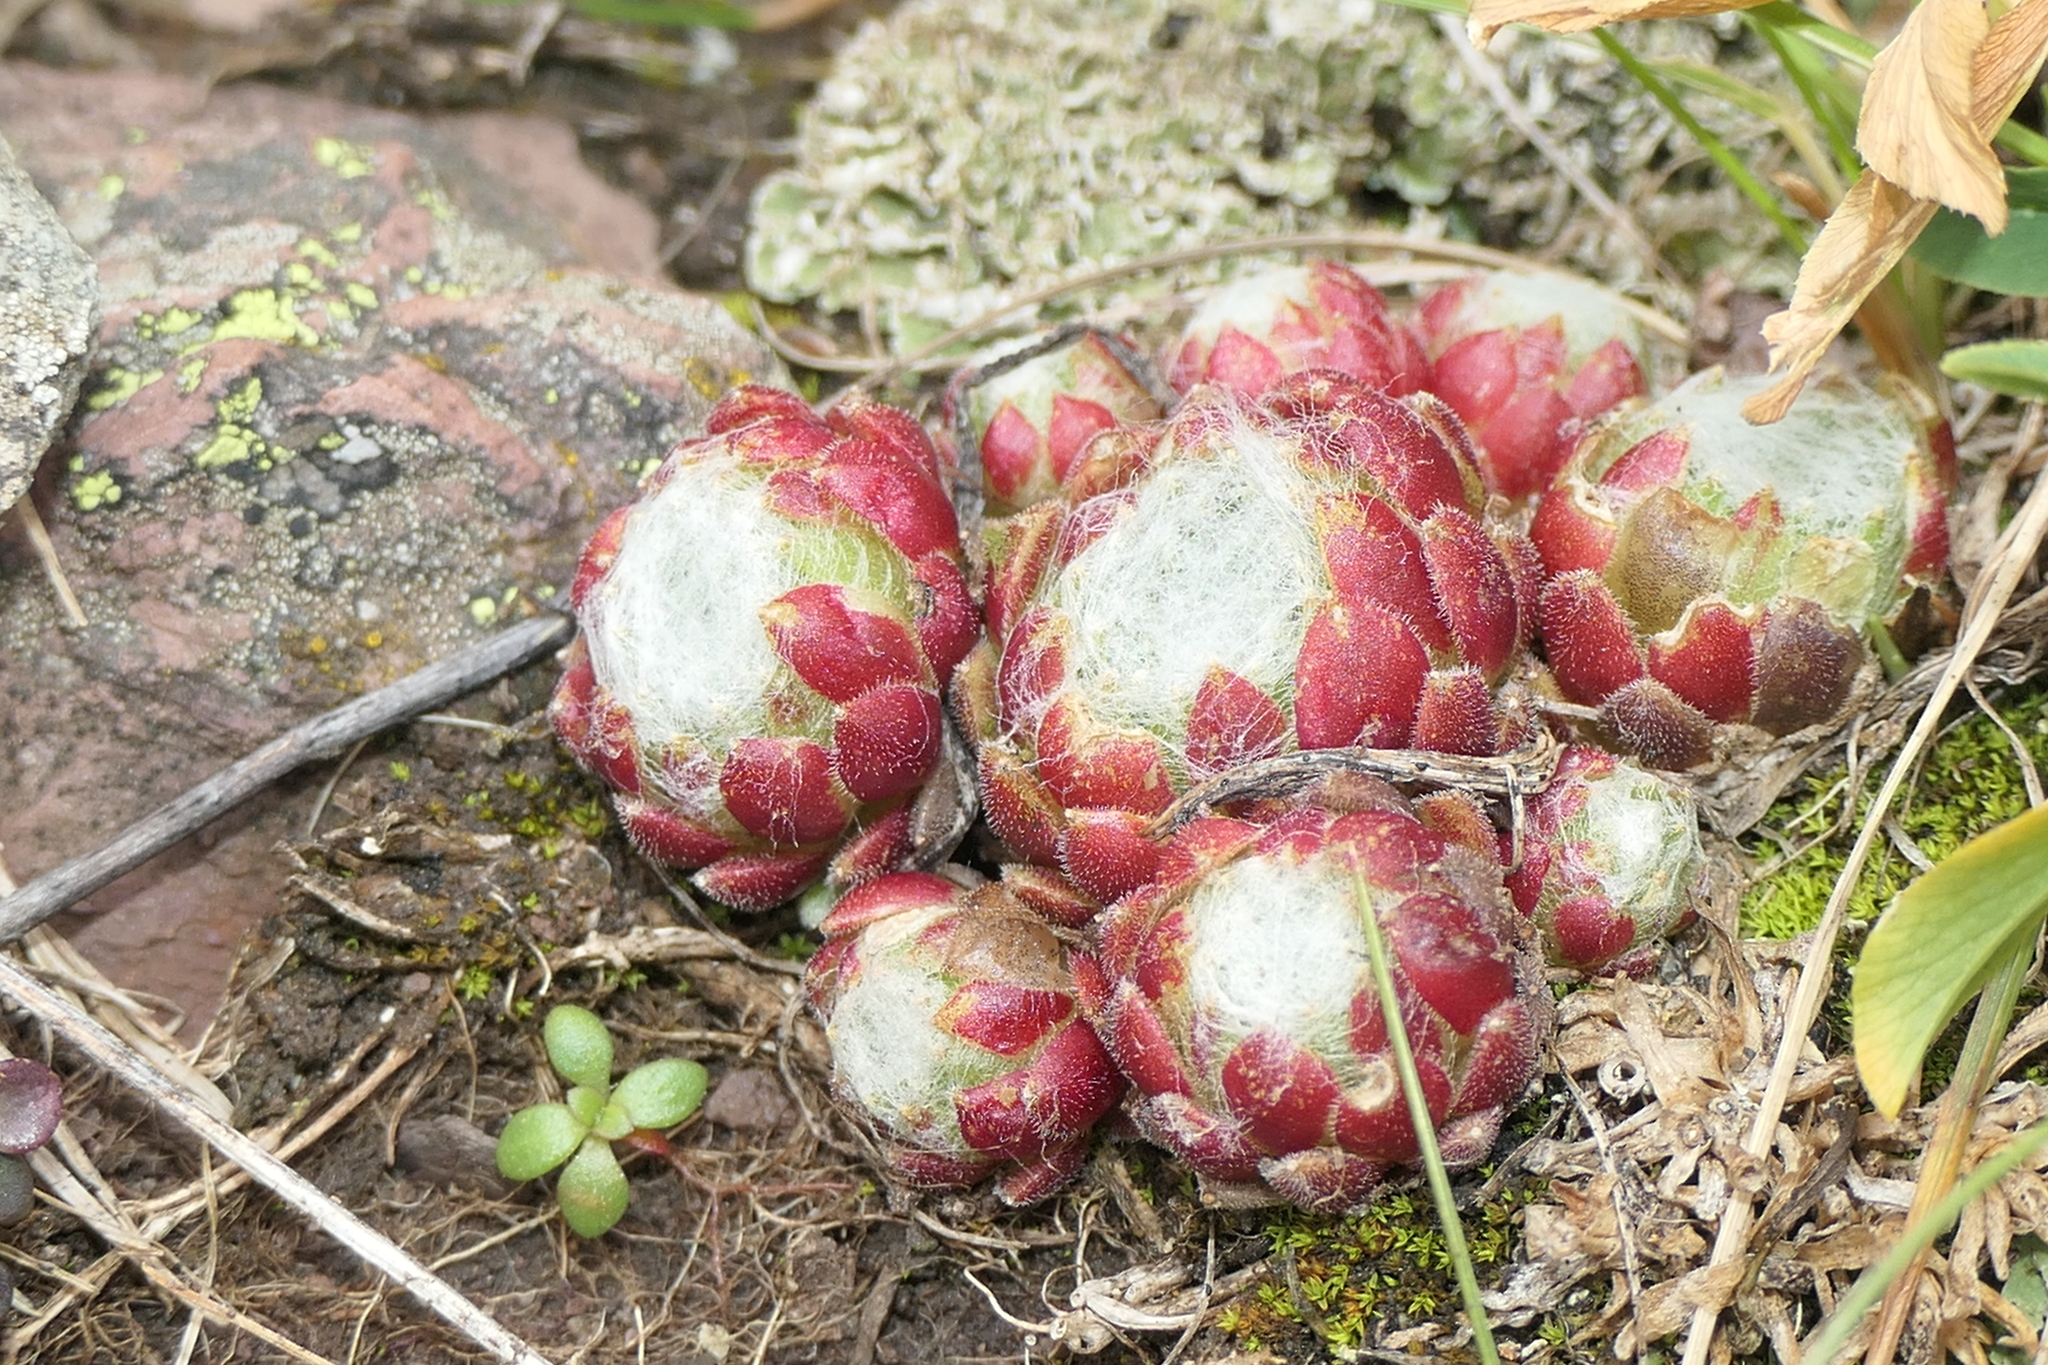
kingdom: Plantae
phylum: Tracheophyta
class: Magnoliopsida
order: Saxifragales
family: Crassulaceae
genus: Sempervivum
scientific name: Sempervivum arachnoideum
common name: Cobweb house-leek
